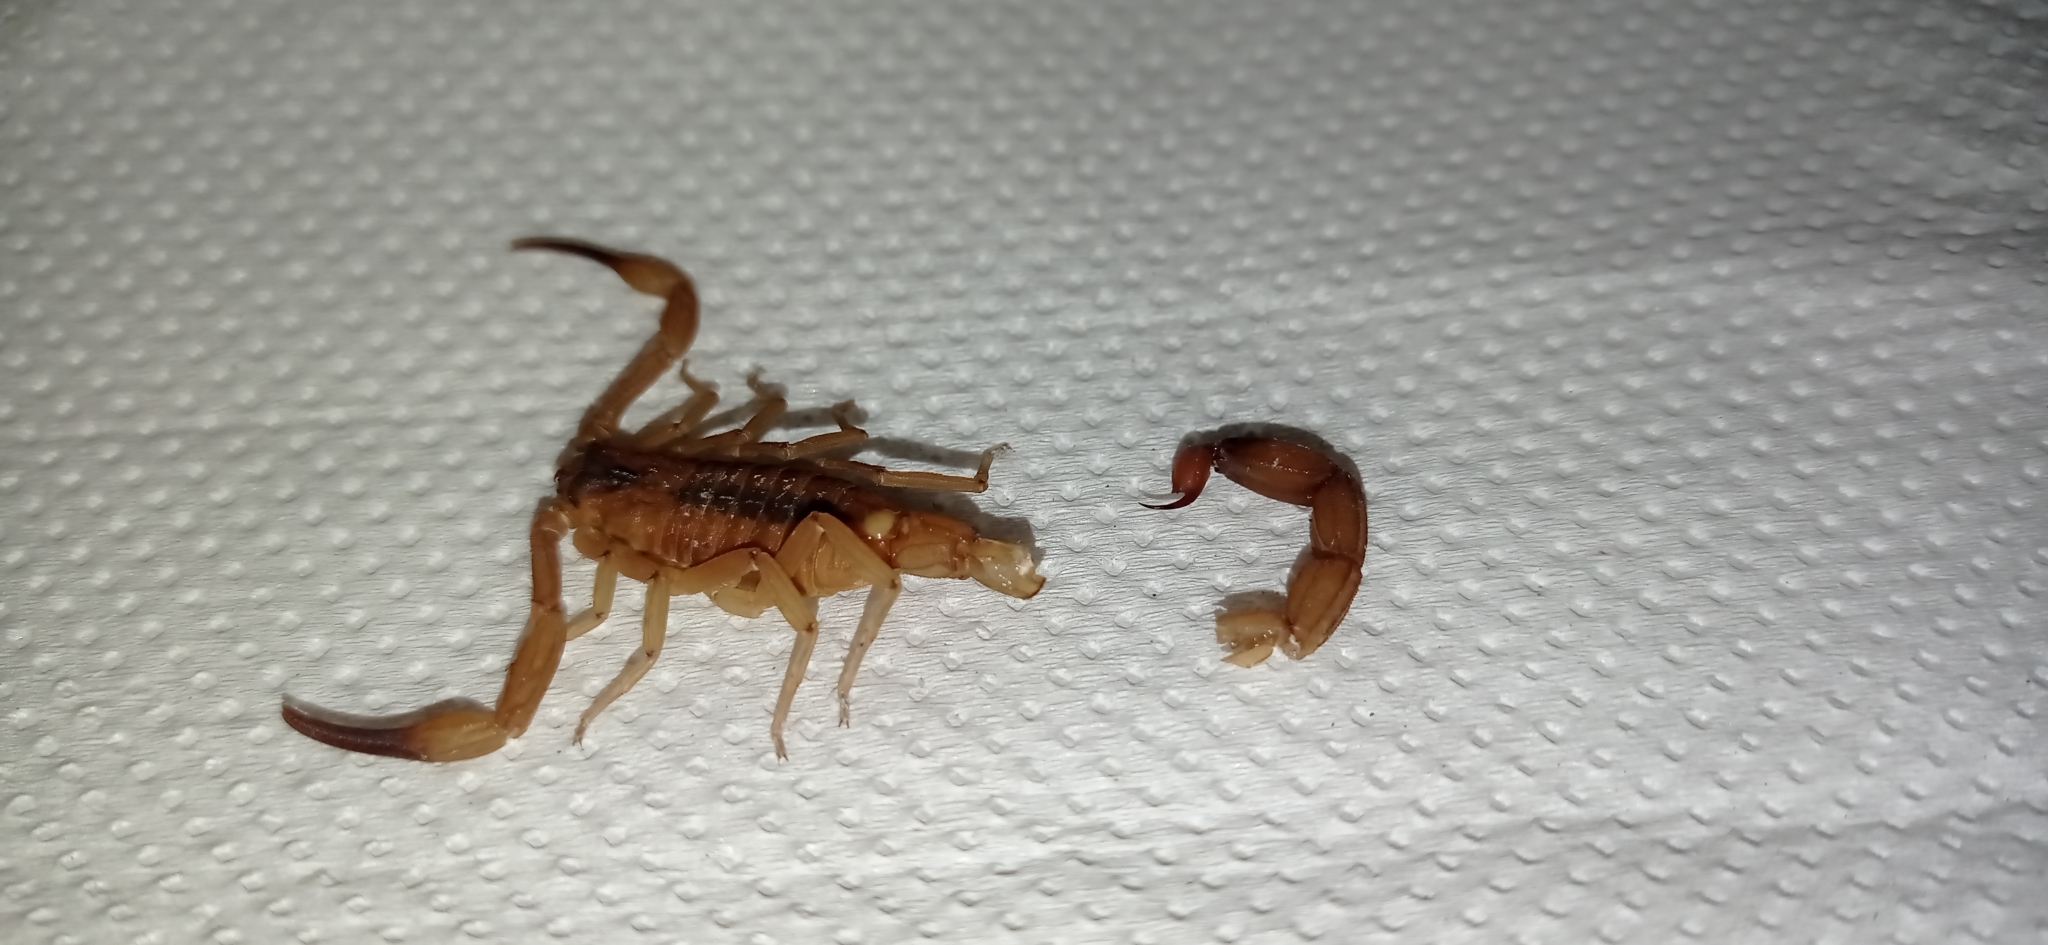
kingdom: Animalia
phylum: Arthropoda
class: Arachnida
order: Scorpiones
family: Buthidae
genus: Tityus
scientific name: Tityus stigmurus
